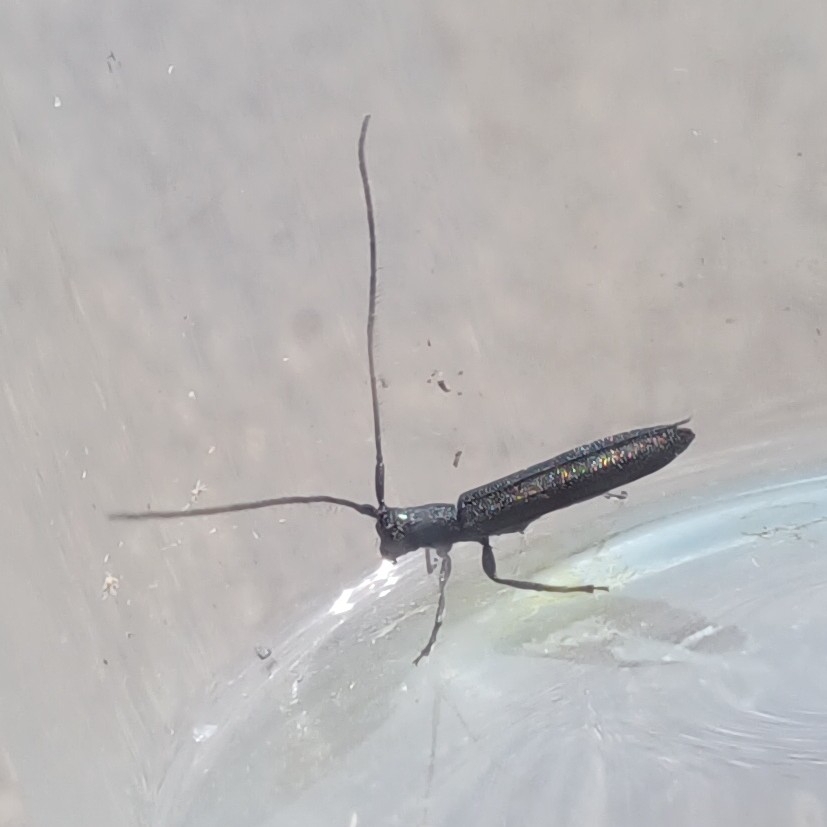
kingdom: Animalia
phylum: Arthropoda
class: Insecta
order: Coleoptera
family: Cerambycidae
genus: Theophilea
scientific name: Theophilea subcylindricollis
